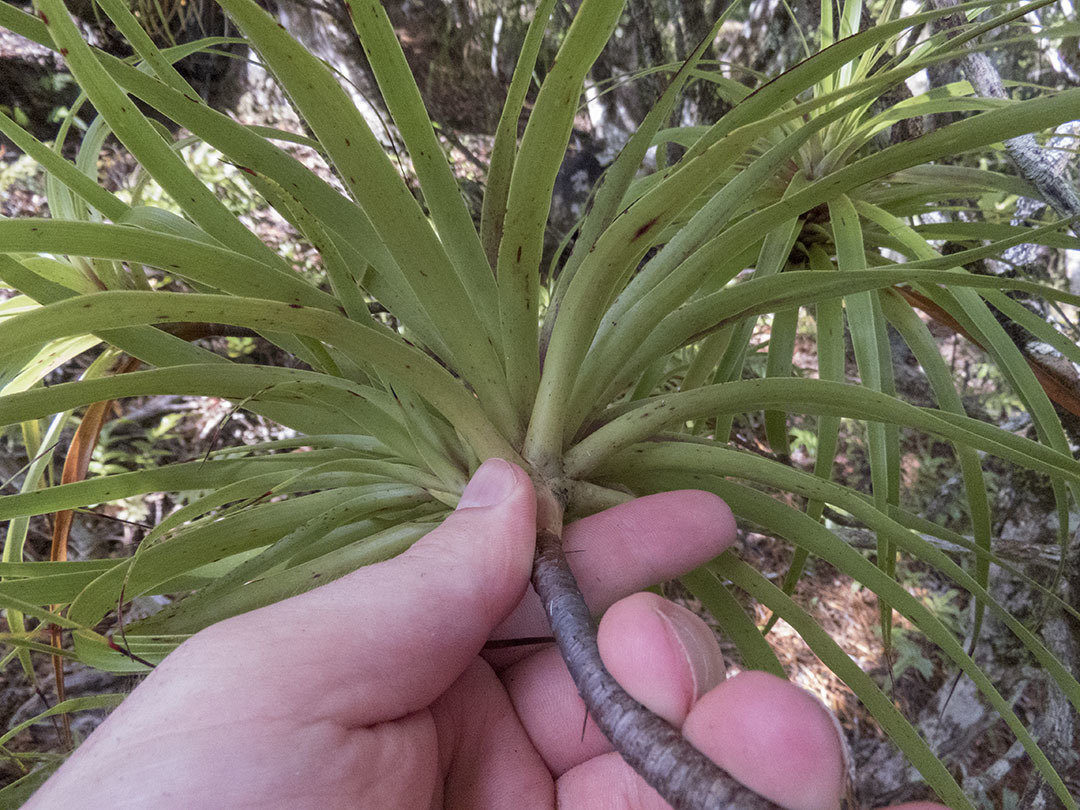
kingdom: Plantae
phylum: Tracheophyta
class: Magnoliopsida
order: Ericales
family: Ericaceae
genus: Dracophyllum
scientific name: Dracophyllum traversii
